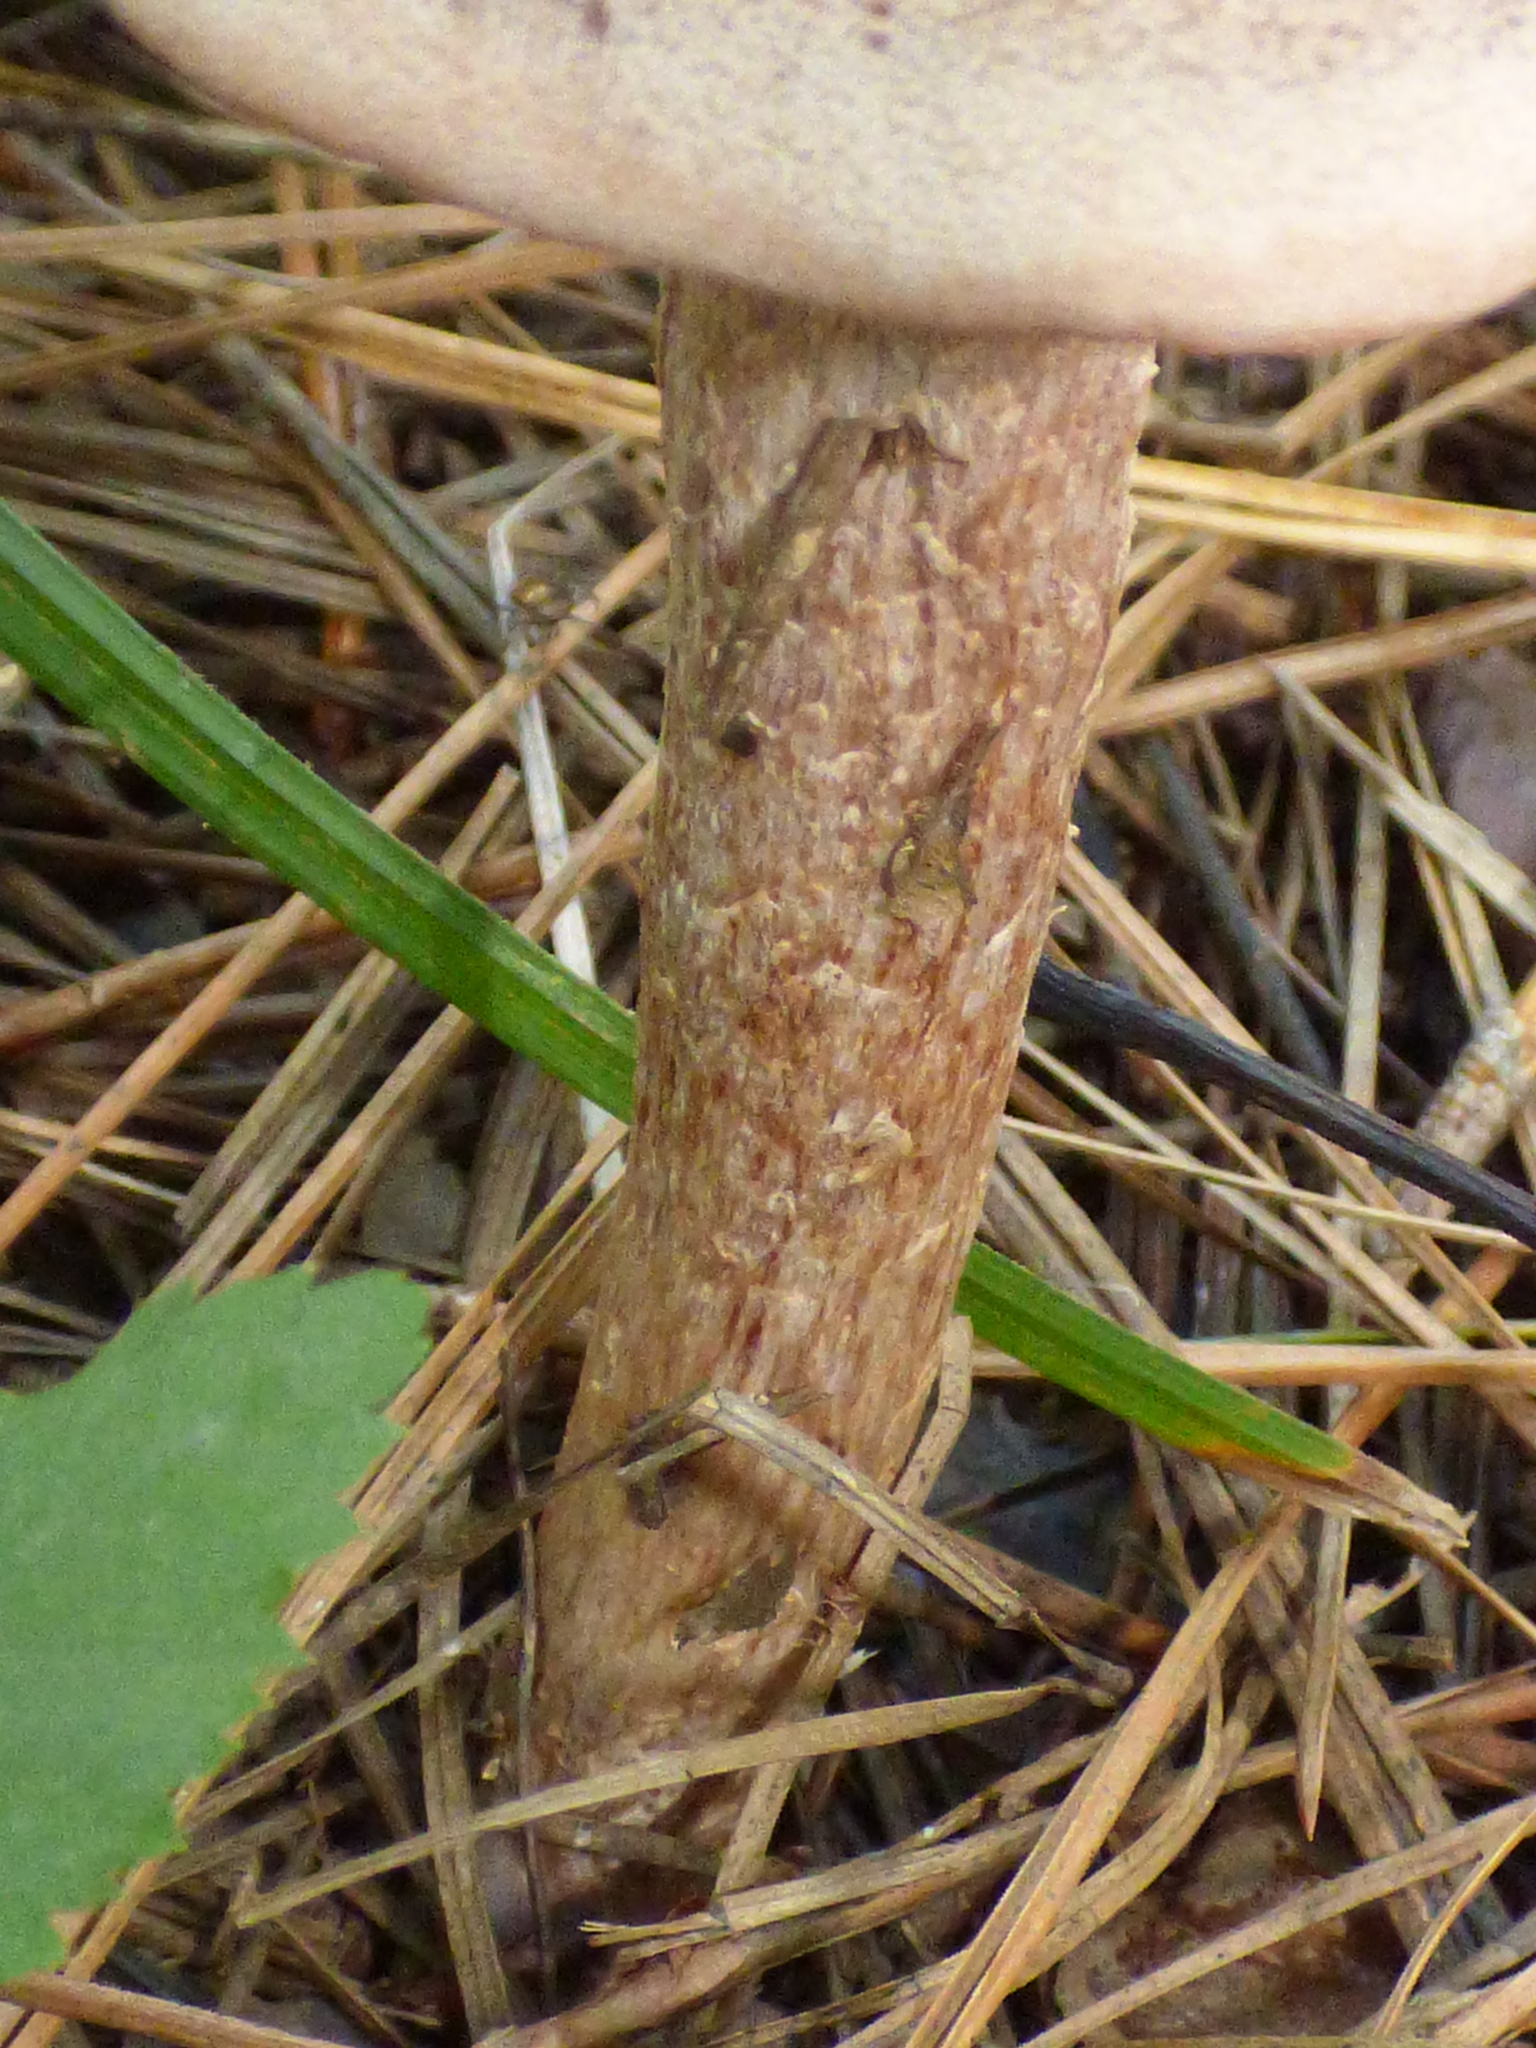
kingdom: Fungi
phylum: Basidiomycota
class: Agaricomycetes
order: Agaricales
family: Hydnangiaceae
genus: Laccaria
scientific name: Laccaria ochropurpurea
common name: Purple laccaria
